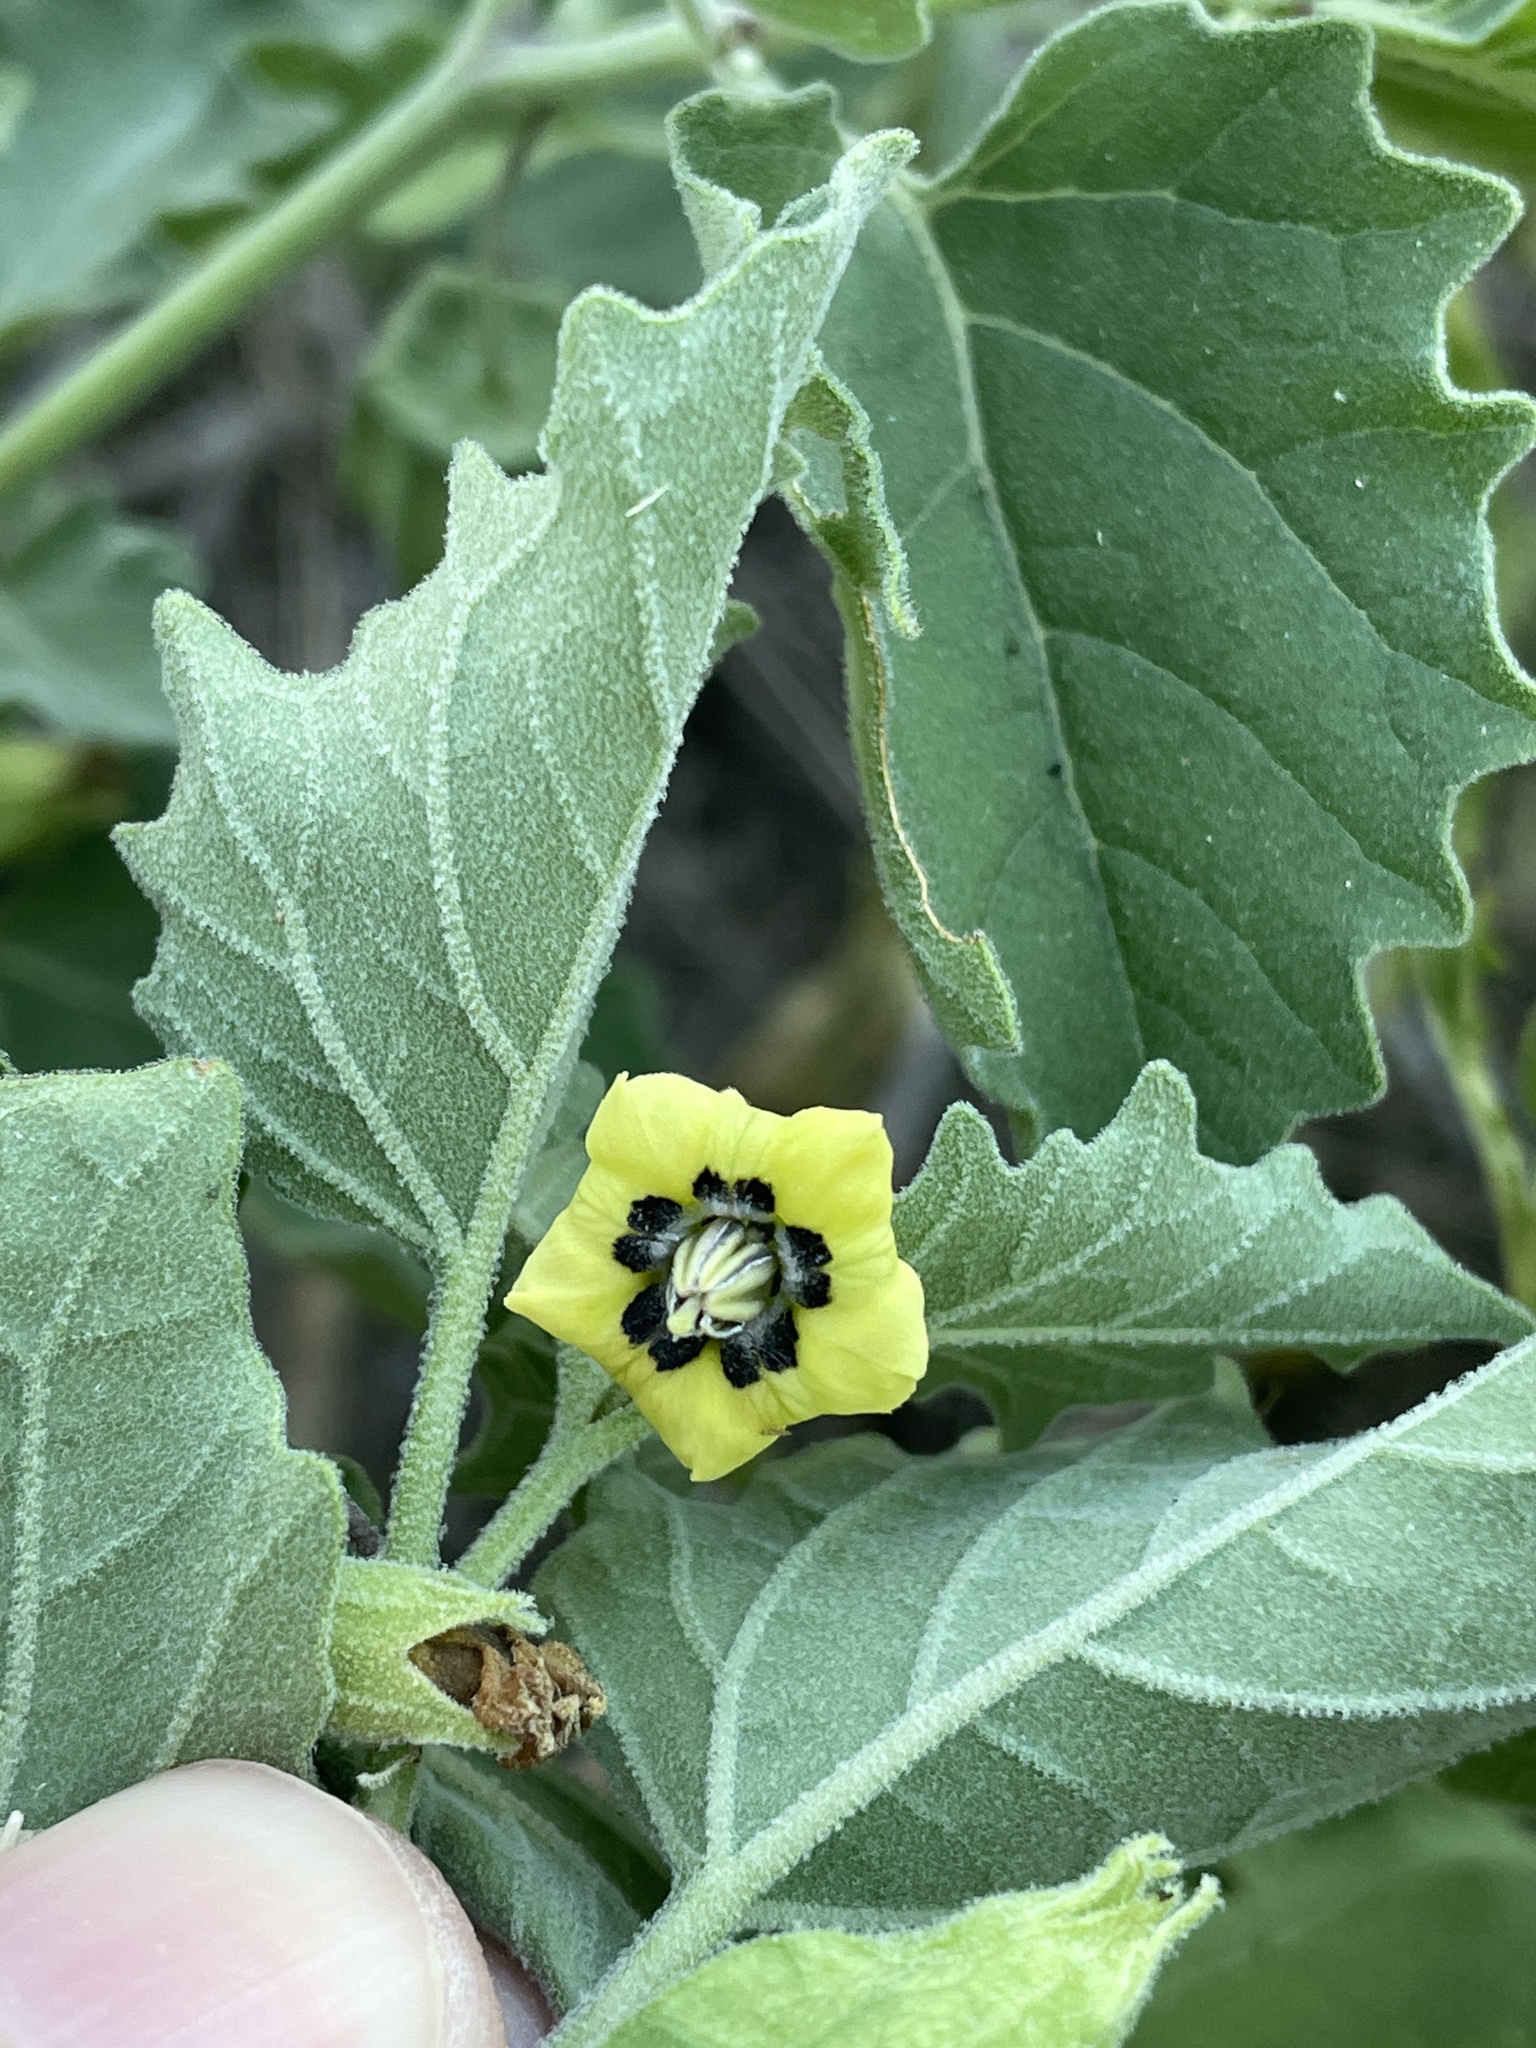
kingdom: Plantae
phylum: Tracheophyta
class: Magnoliopsida
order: Solanales
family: Solanaceae
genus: Physalis
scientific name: Physalis cinerascens
